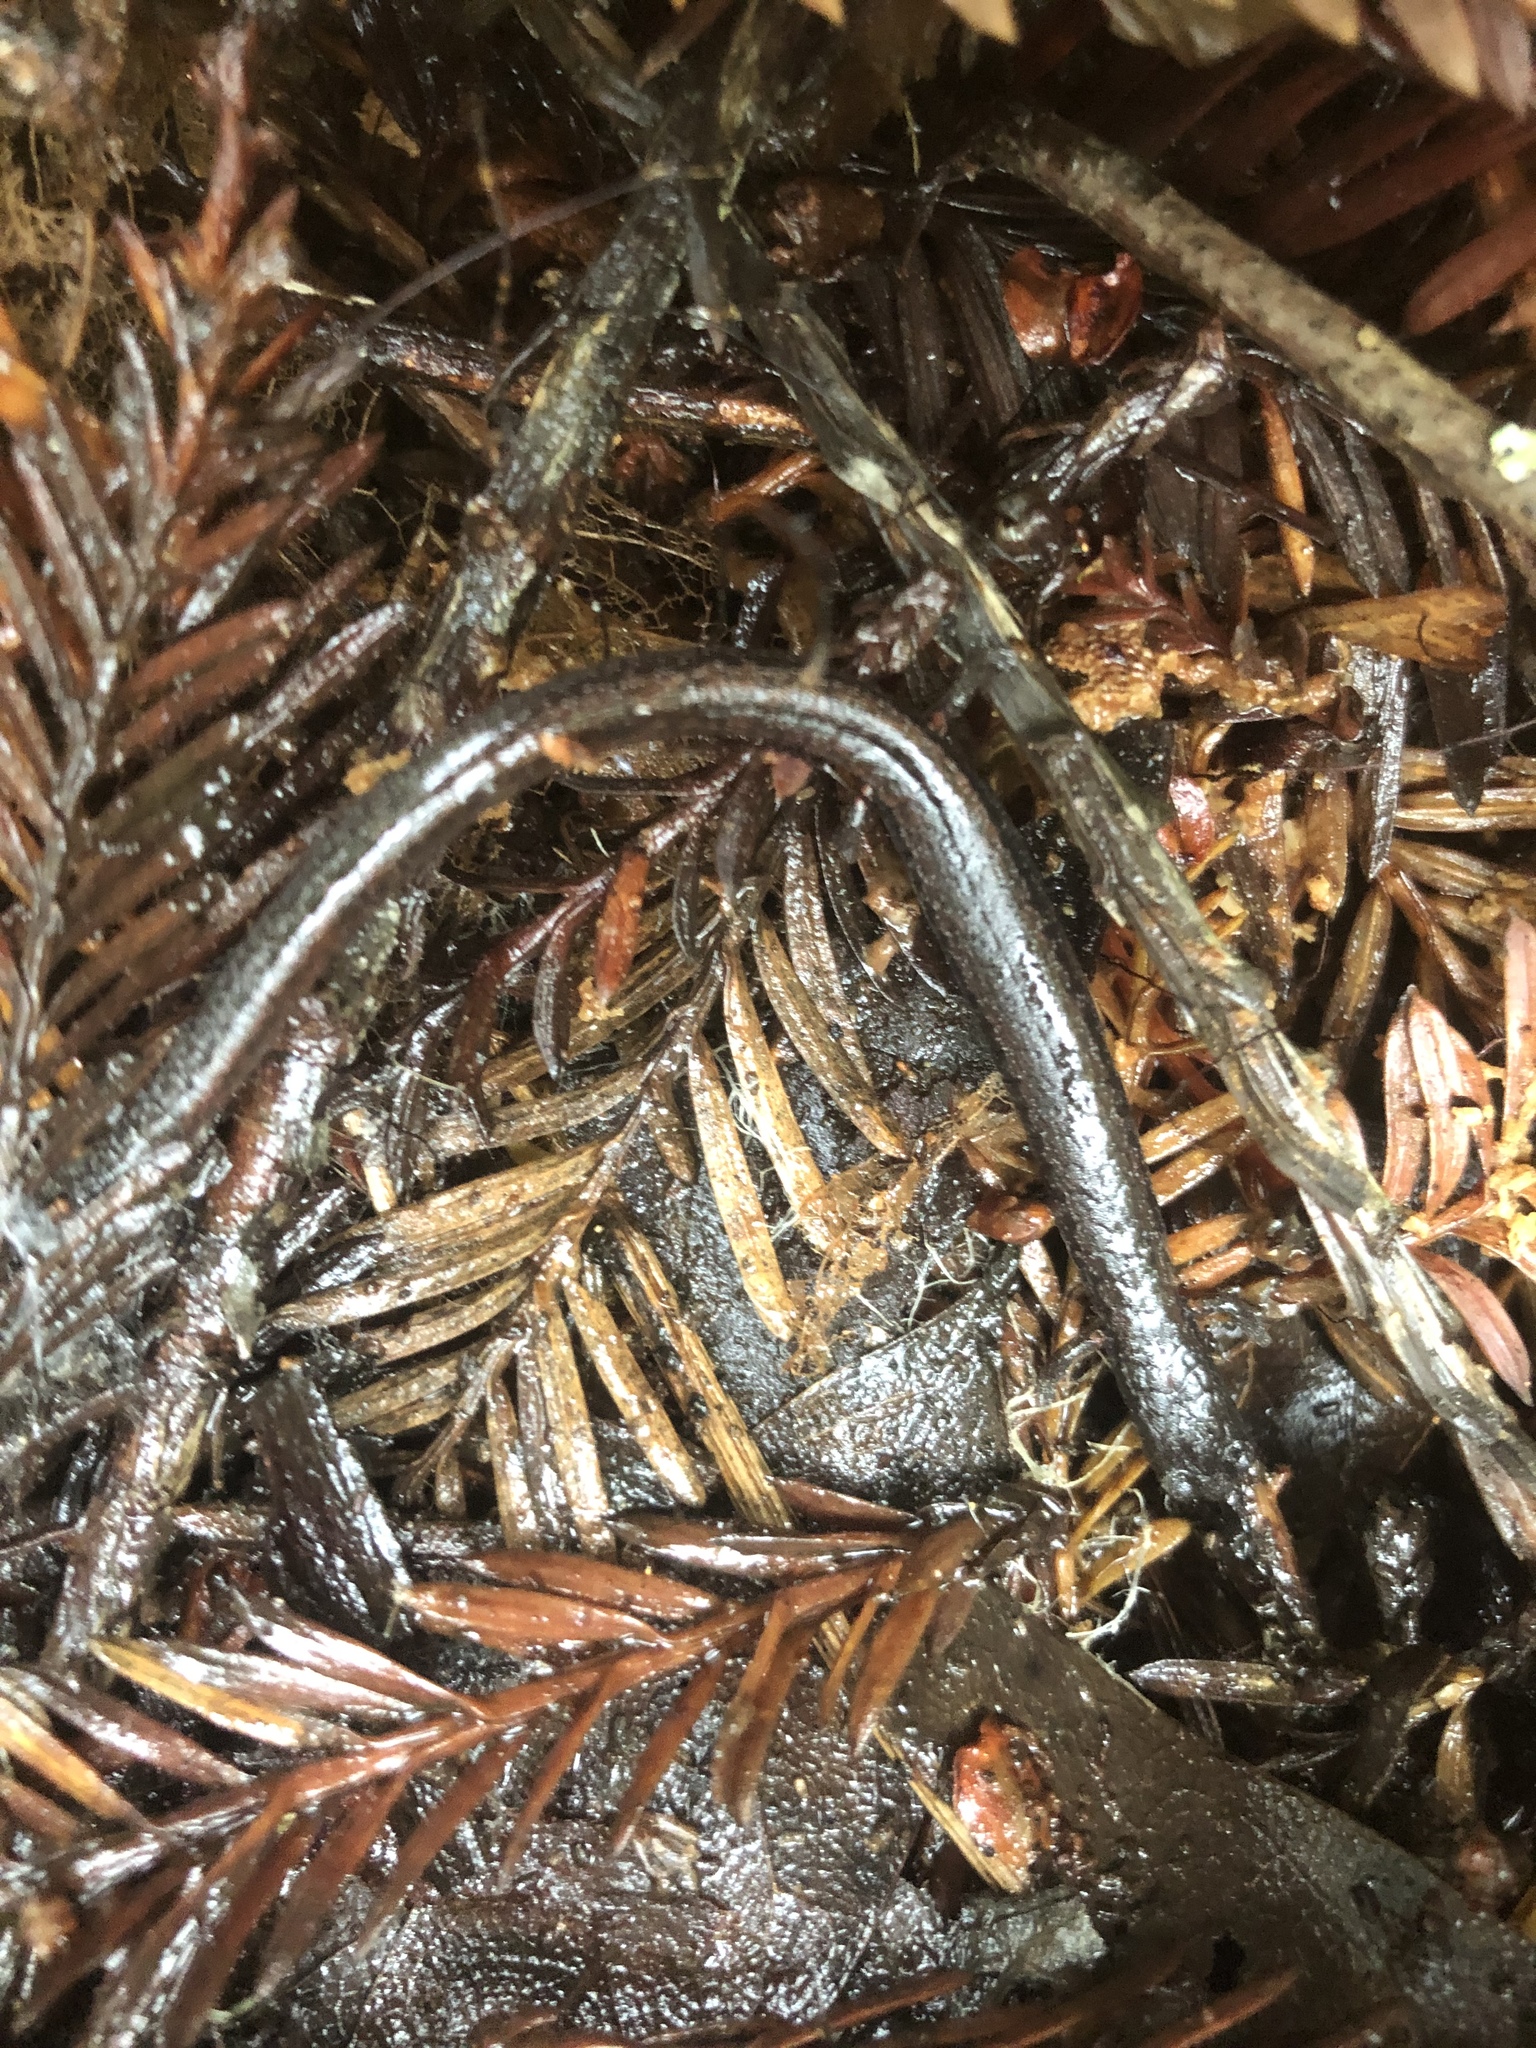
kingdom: Animalia
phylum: Chordata
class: Amphibia
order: Caudata
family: Plethodontidae
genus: Batrachoseps
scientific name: Batrachoseps attenuatus
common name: California slender salamander
